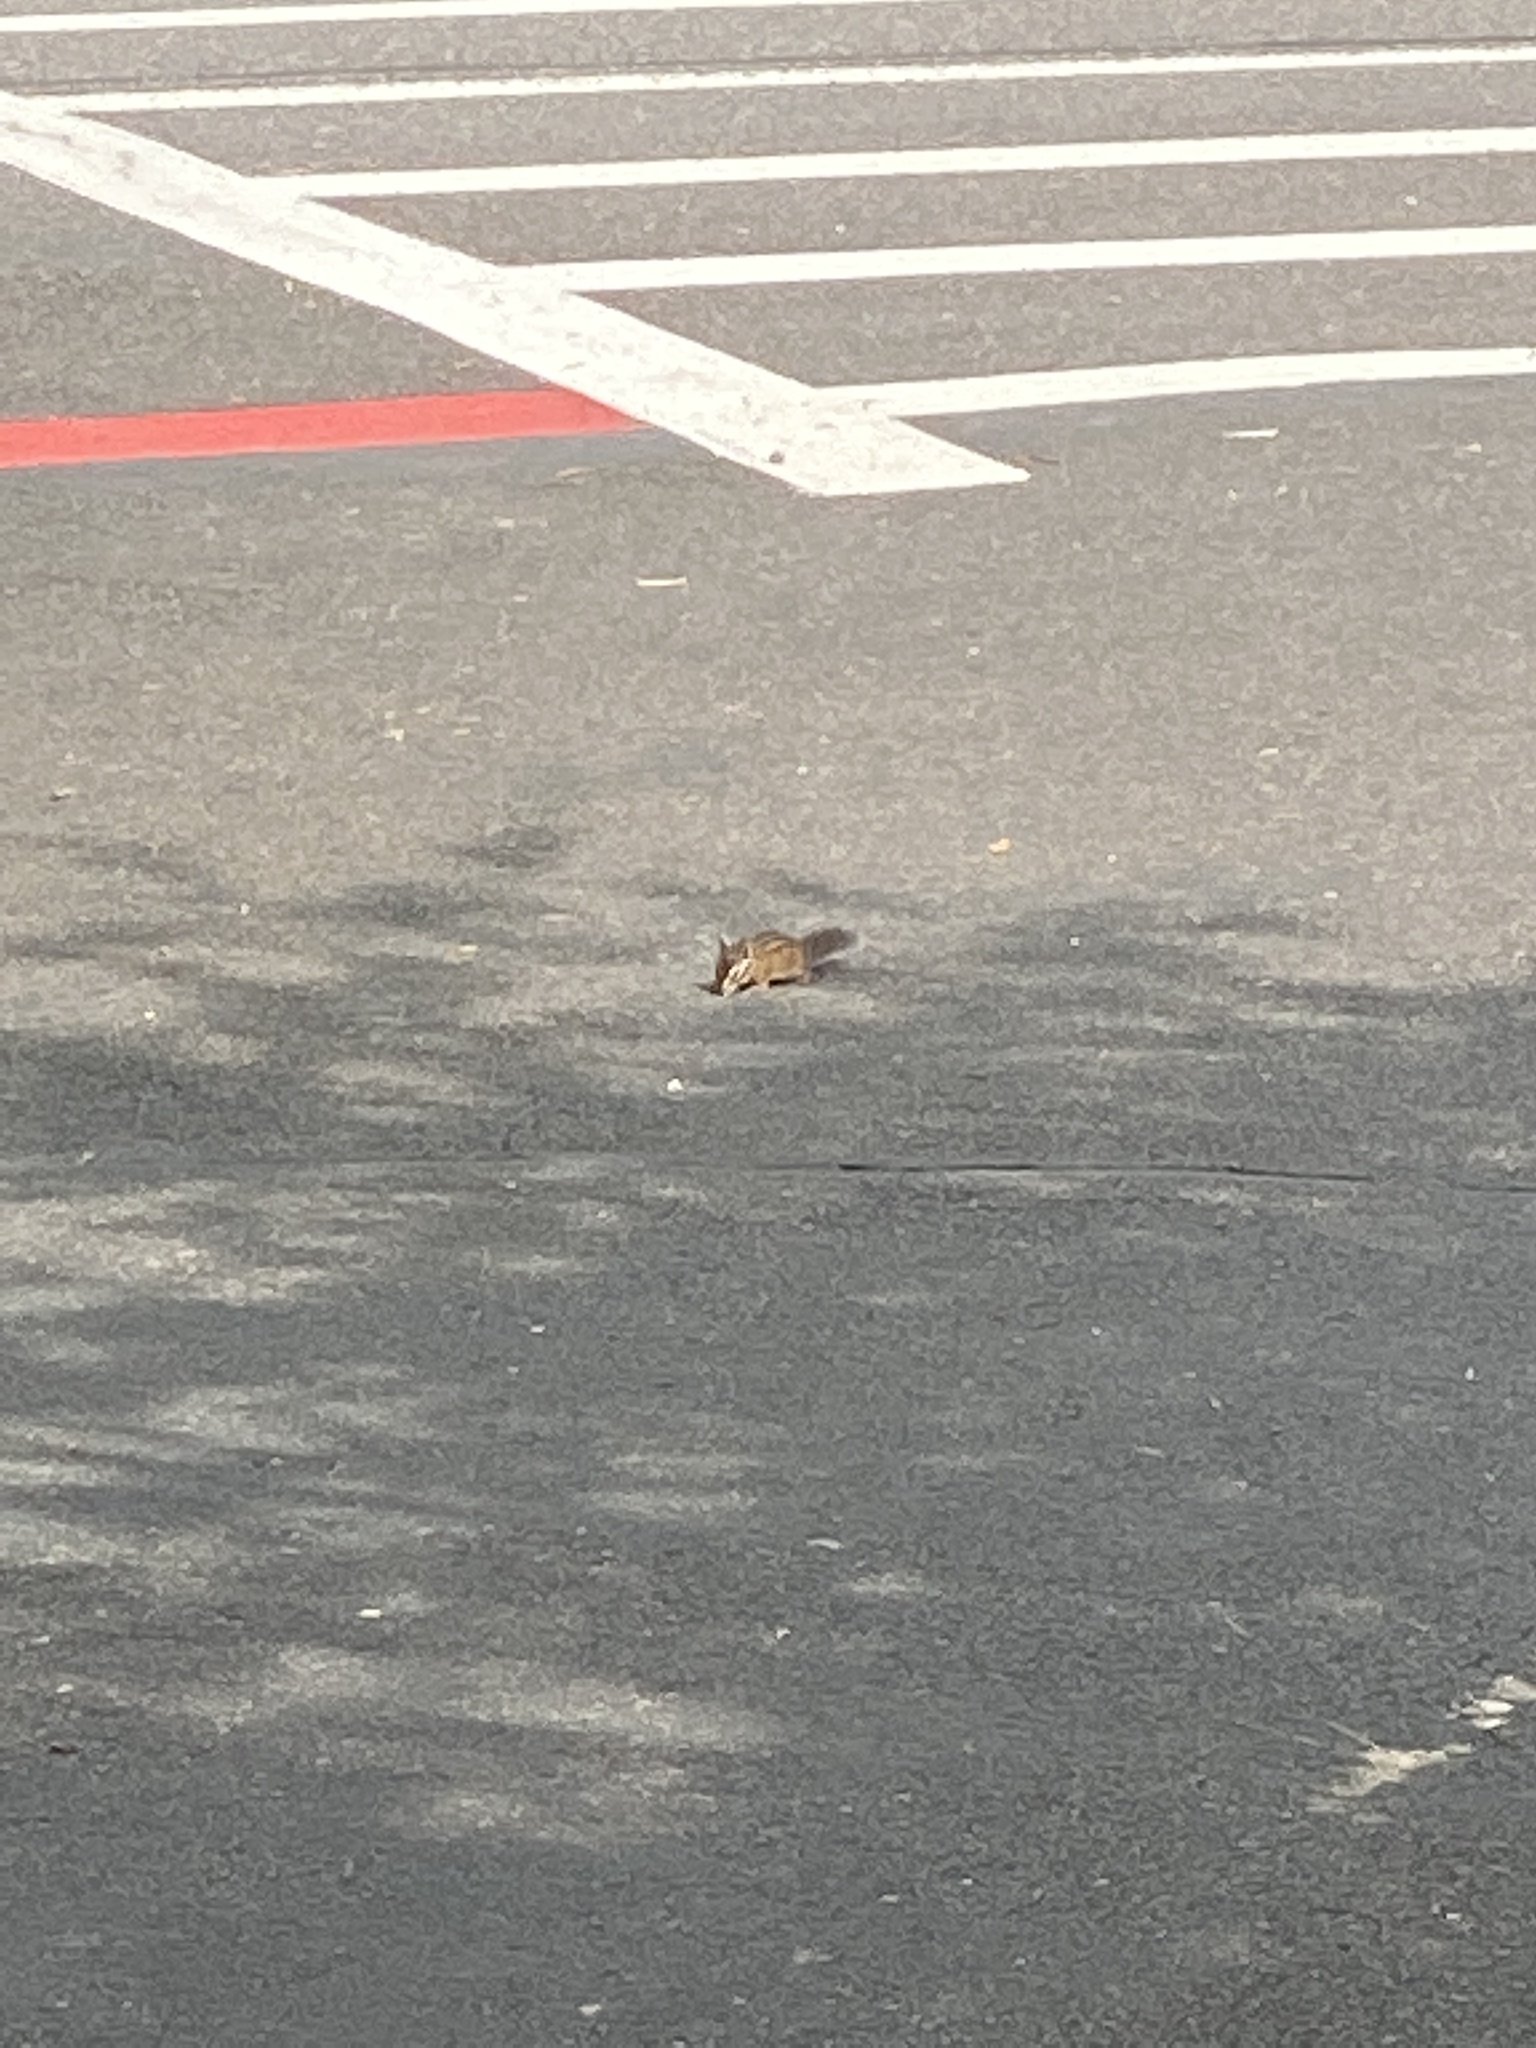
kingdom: Animalia
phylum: Chordata
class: Mammalia
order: Rodentia
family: Sciuridae
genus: Tamias
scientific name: Tamias townsendii
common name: Townsend's chipmunk
